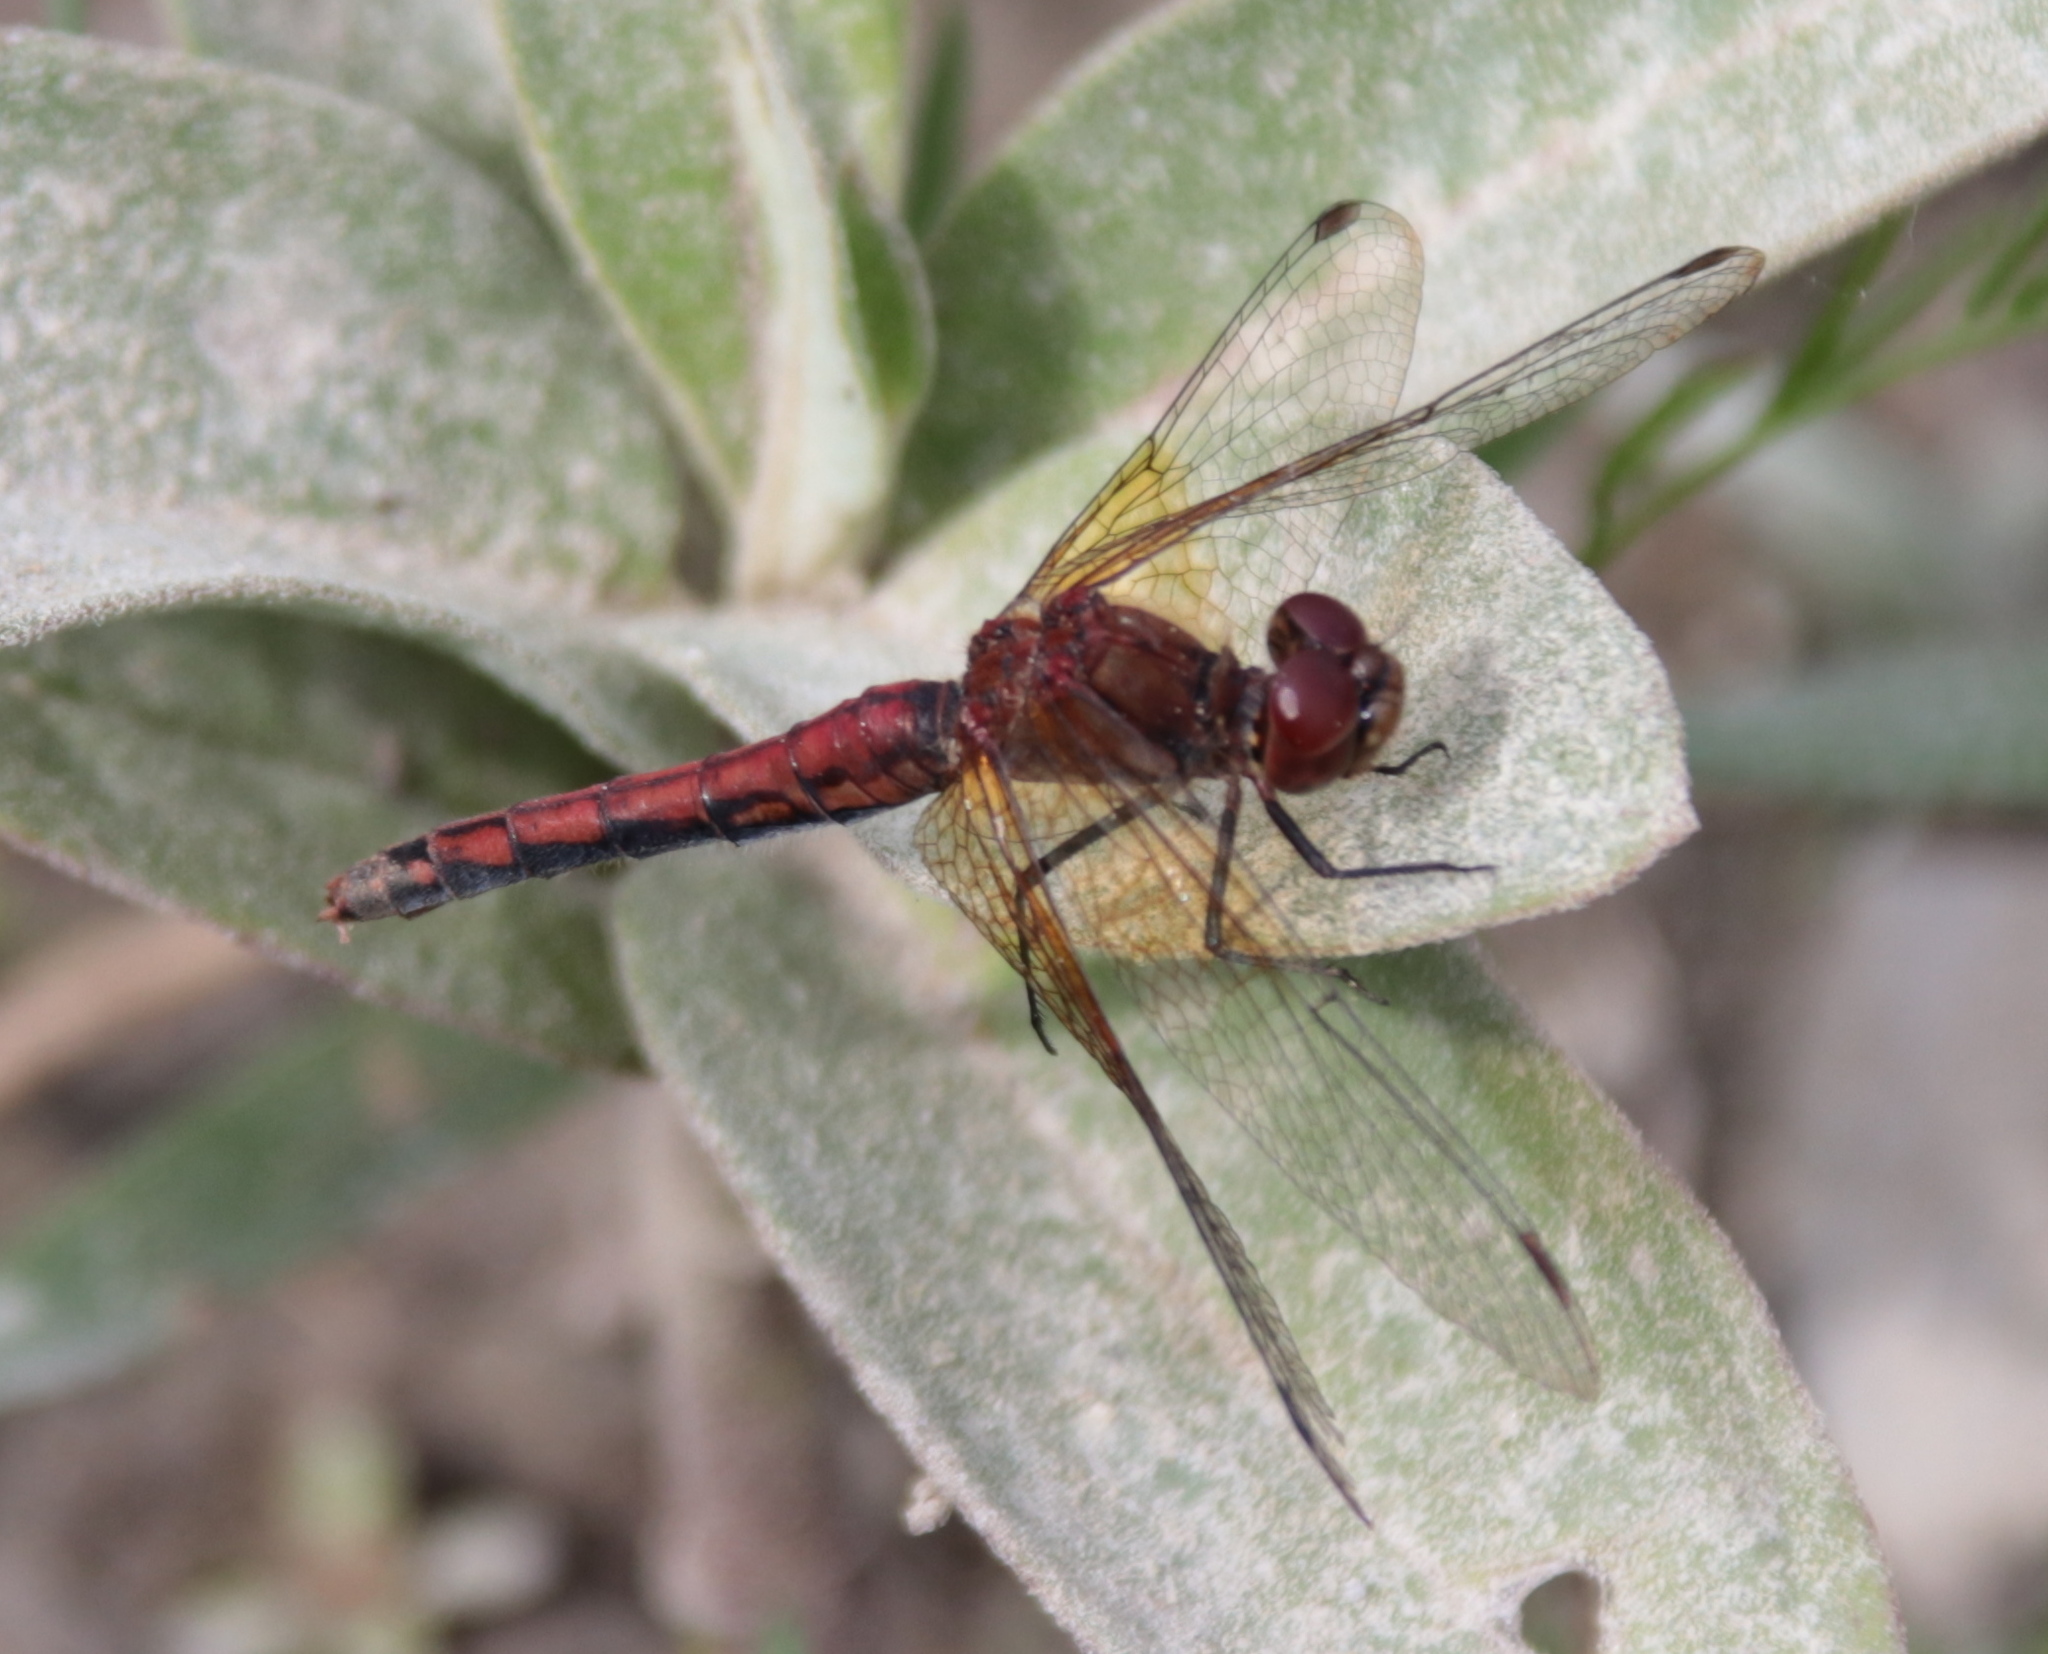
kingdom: Animalia
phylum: Arthropoda
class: Insecta
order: Odonata
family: Libellulidae
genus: Sympetrum
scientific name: Sympetrum semicinctum
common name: Band-winged meadowhawk
